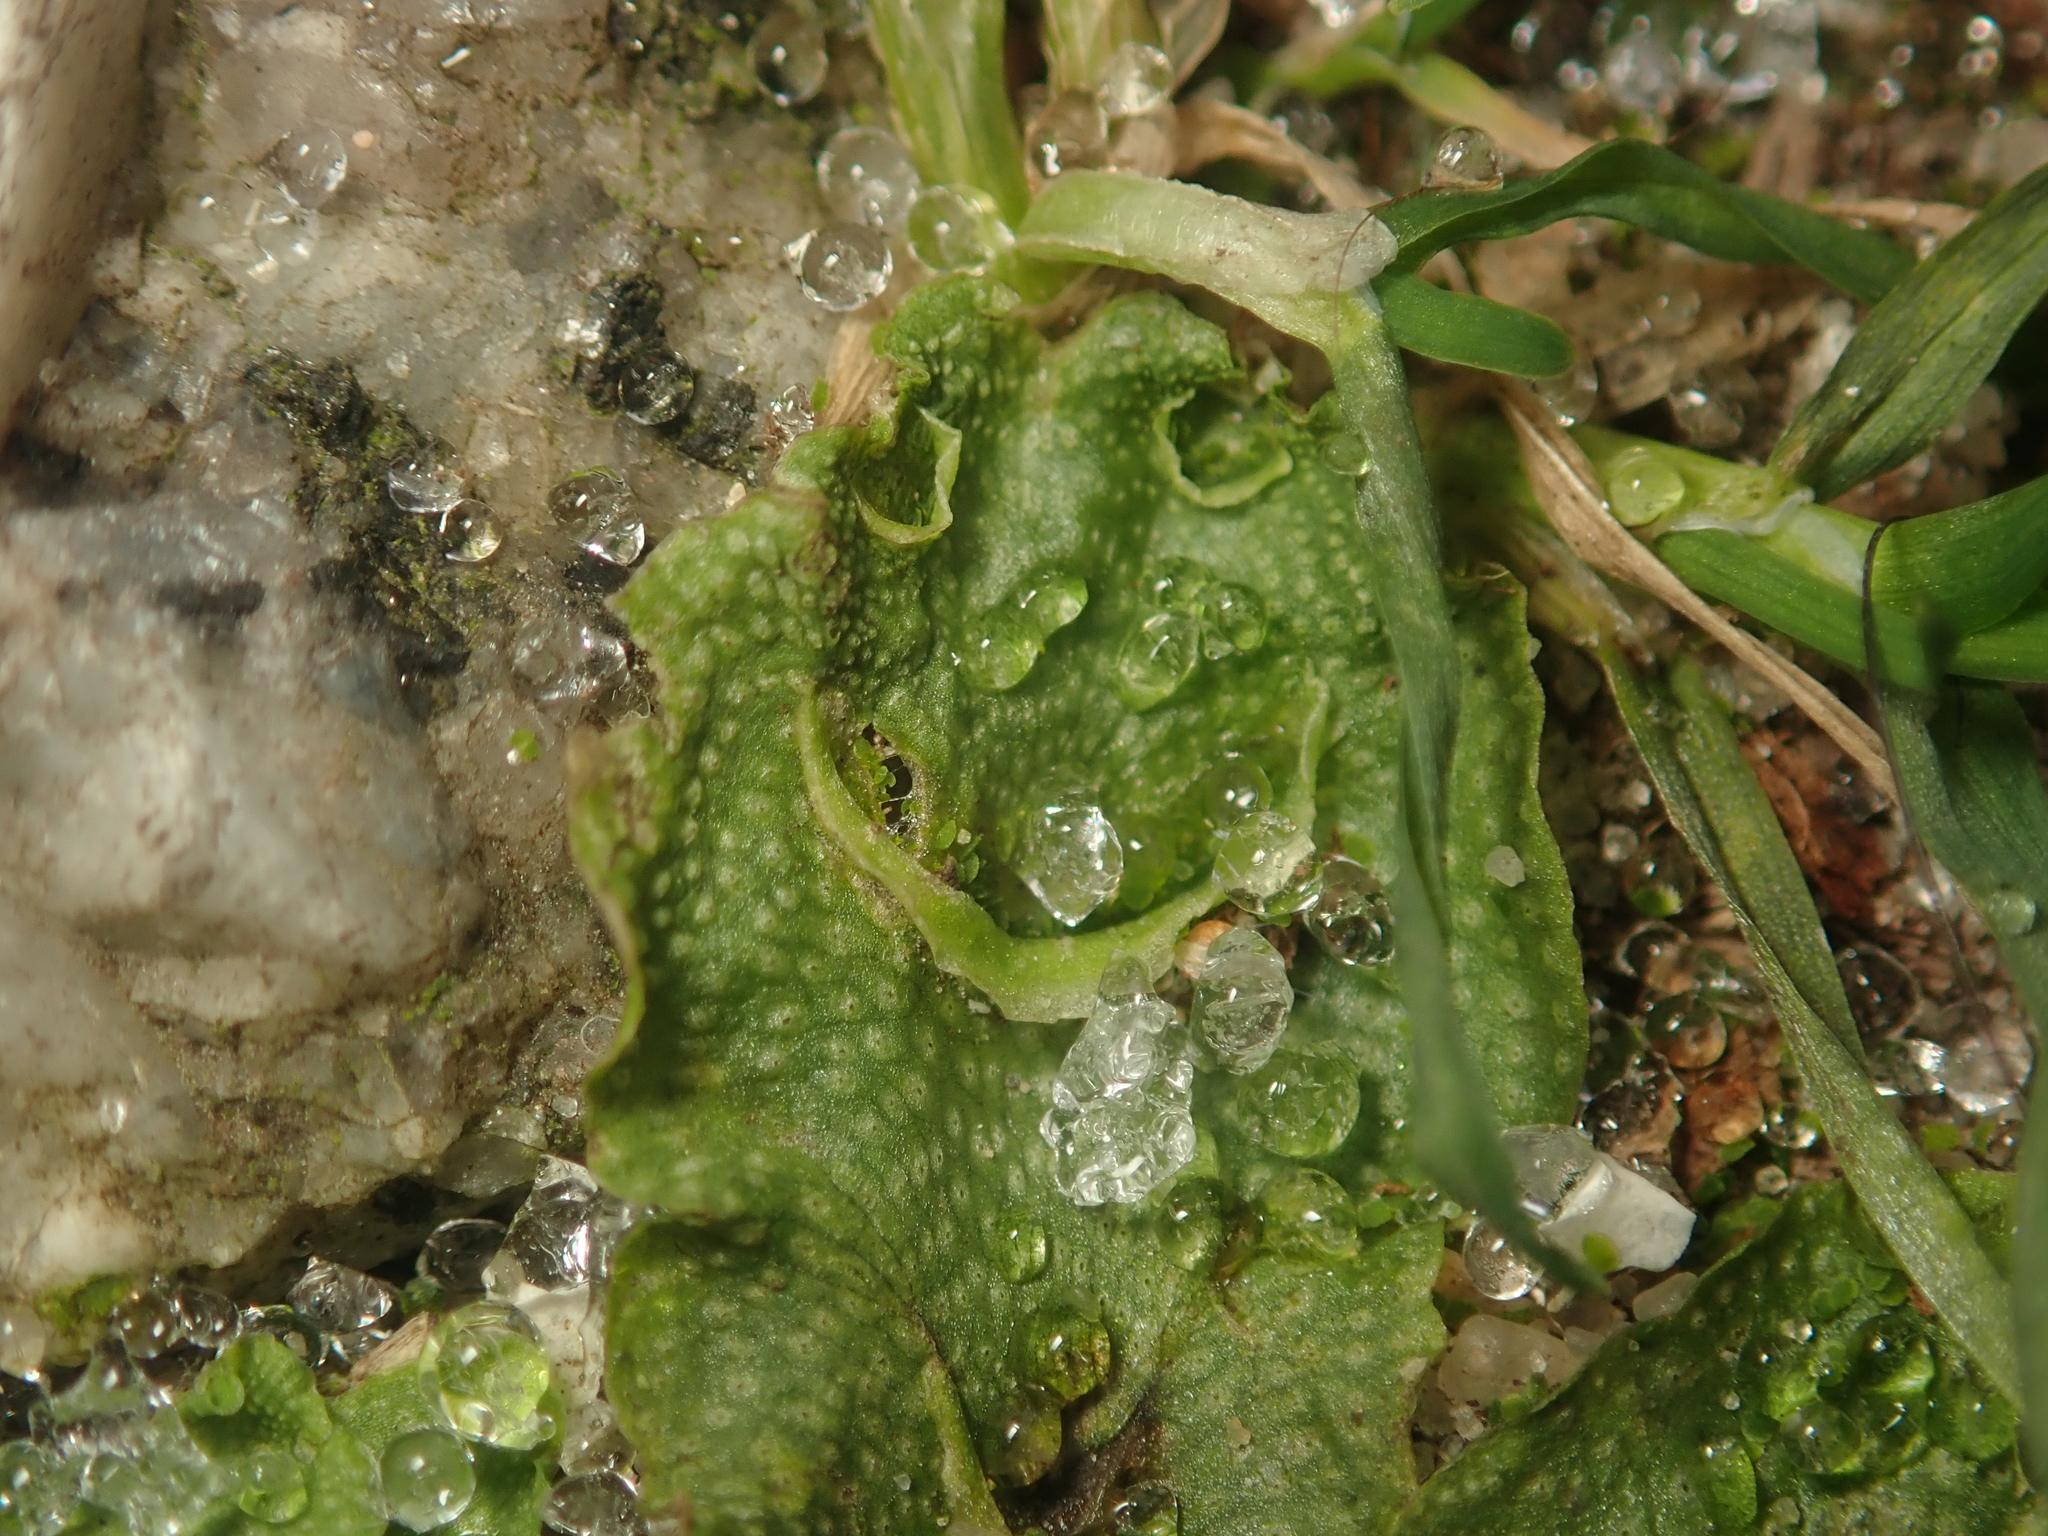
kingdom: Plantae
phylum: Marchantiophyta
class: Marchantiopsida
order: Lunulariales
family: Lunulariaceae
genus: Lunularia
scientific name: Lunularia cruciata
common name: Crescent-cup liverwort
